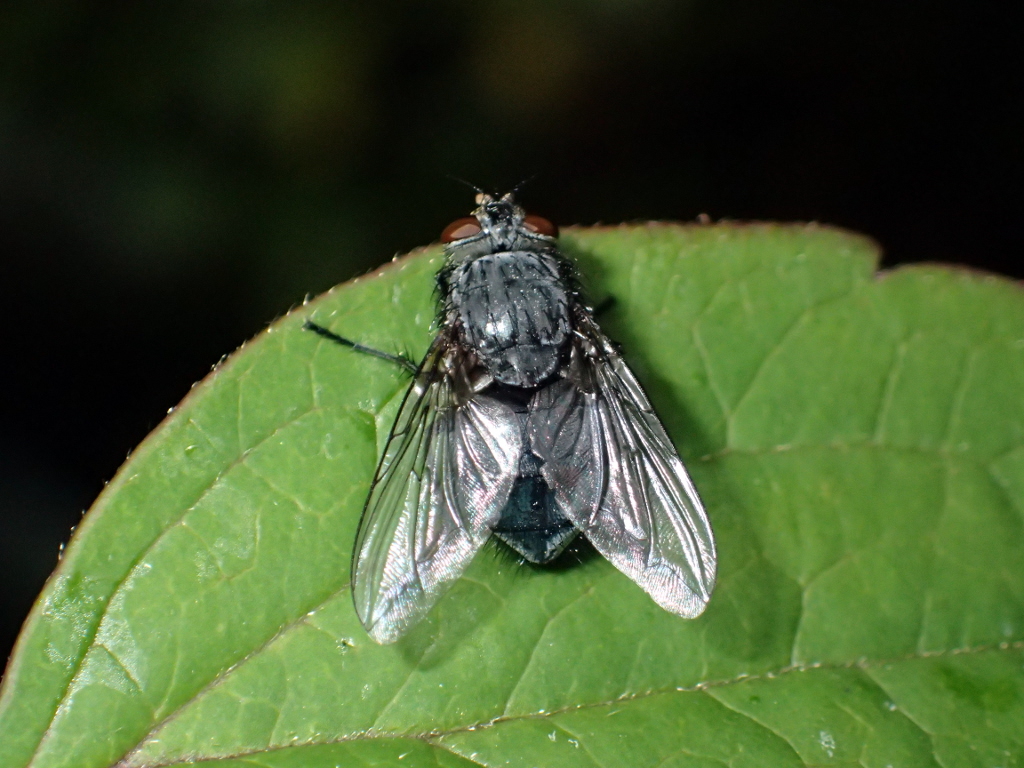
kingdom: Animalia
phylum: Arthropoda
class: Insecta
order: Diptera
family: Calliphoridae
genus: Calliphora
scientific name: Calliphora vicina
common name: Common blow flie
